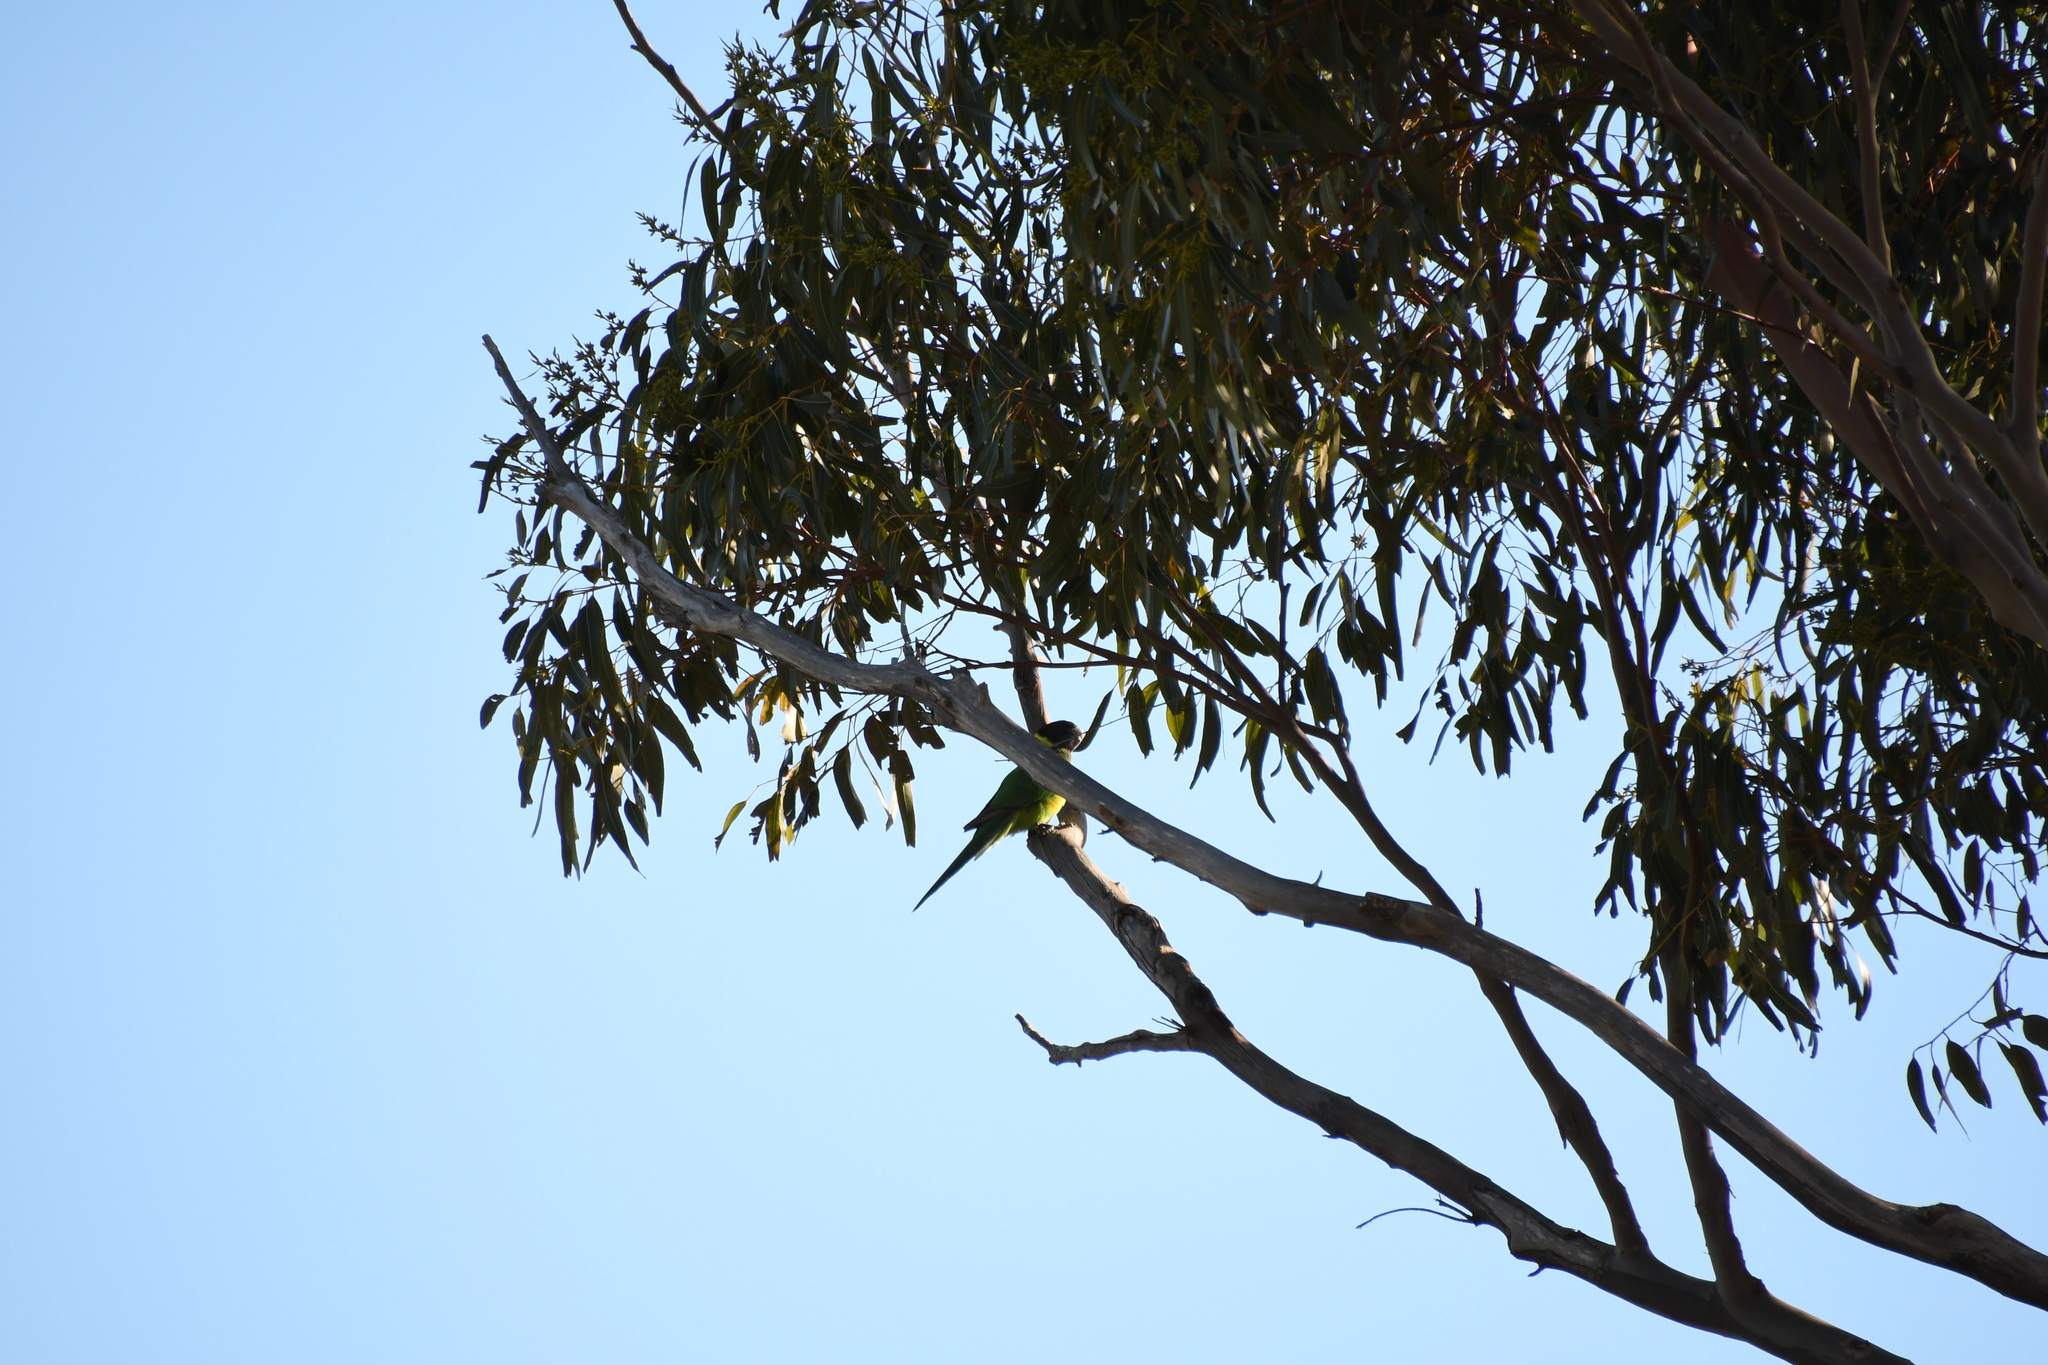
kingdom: Animalia
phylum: Chordata
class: Aves
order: Psittaciformes
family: Psittacidae
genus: Barnardius
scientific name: Barnardius zonarius
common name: Australian ringneck
